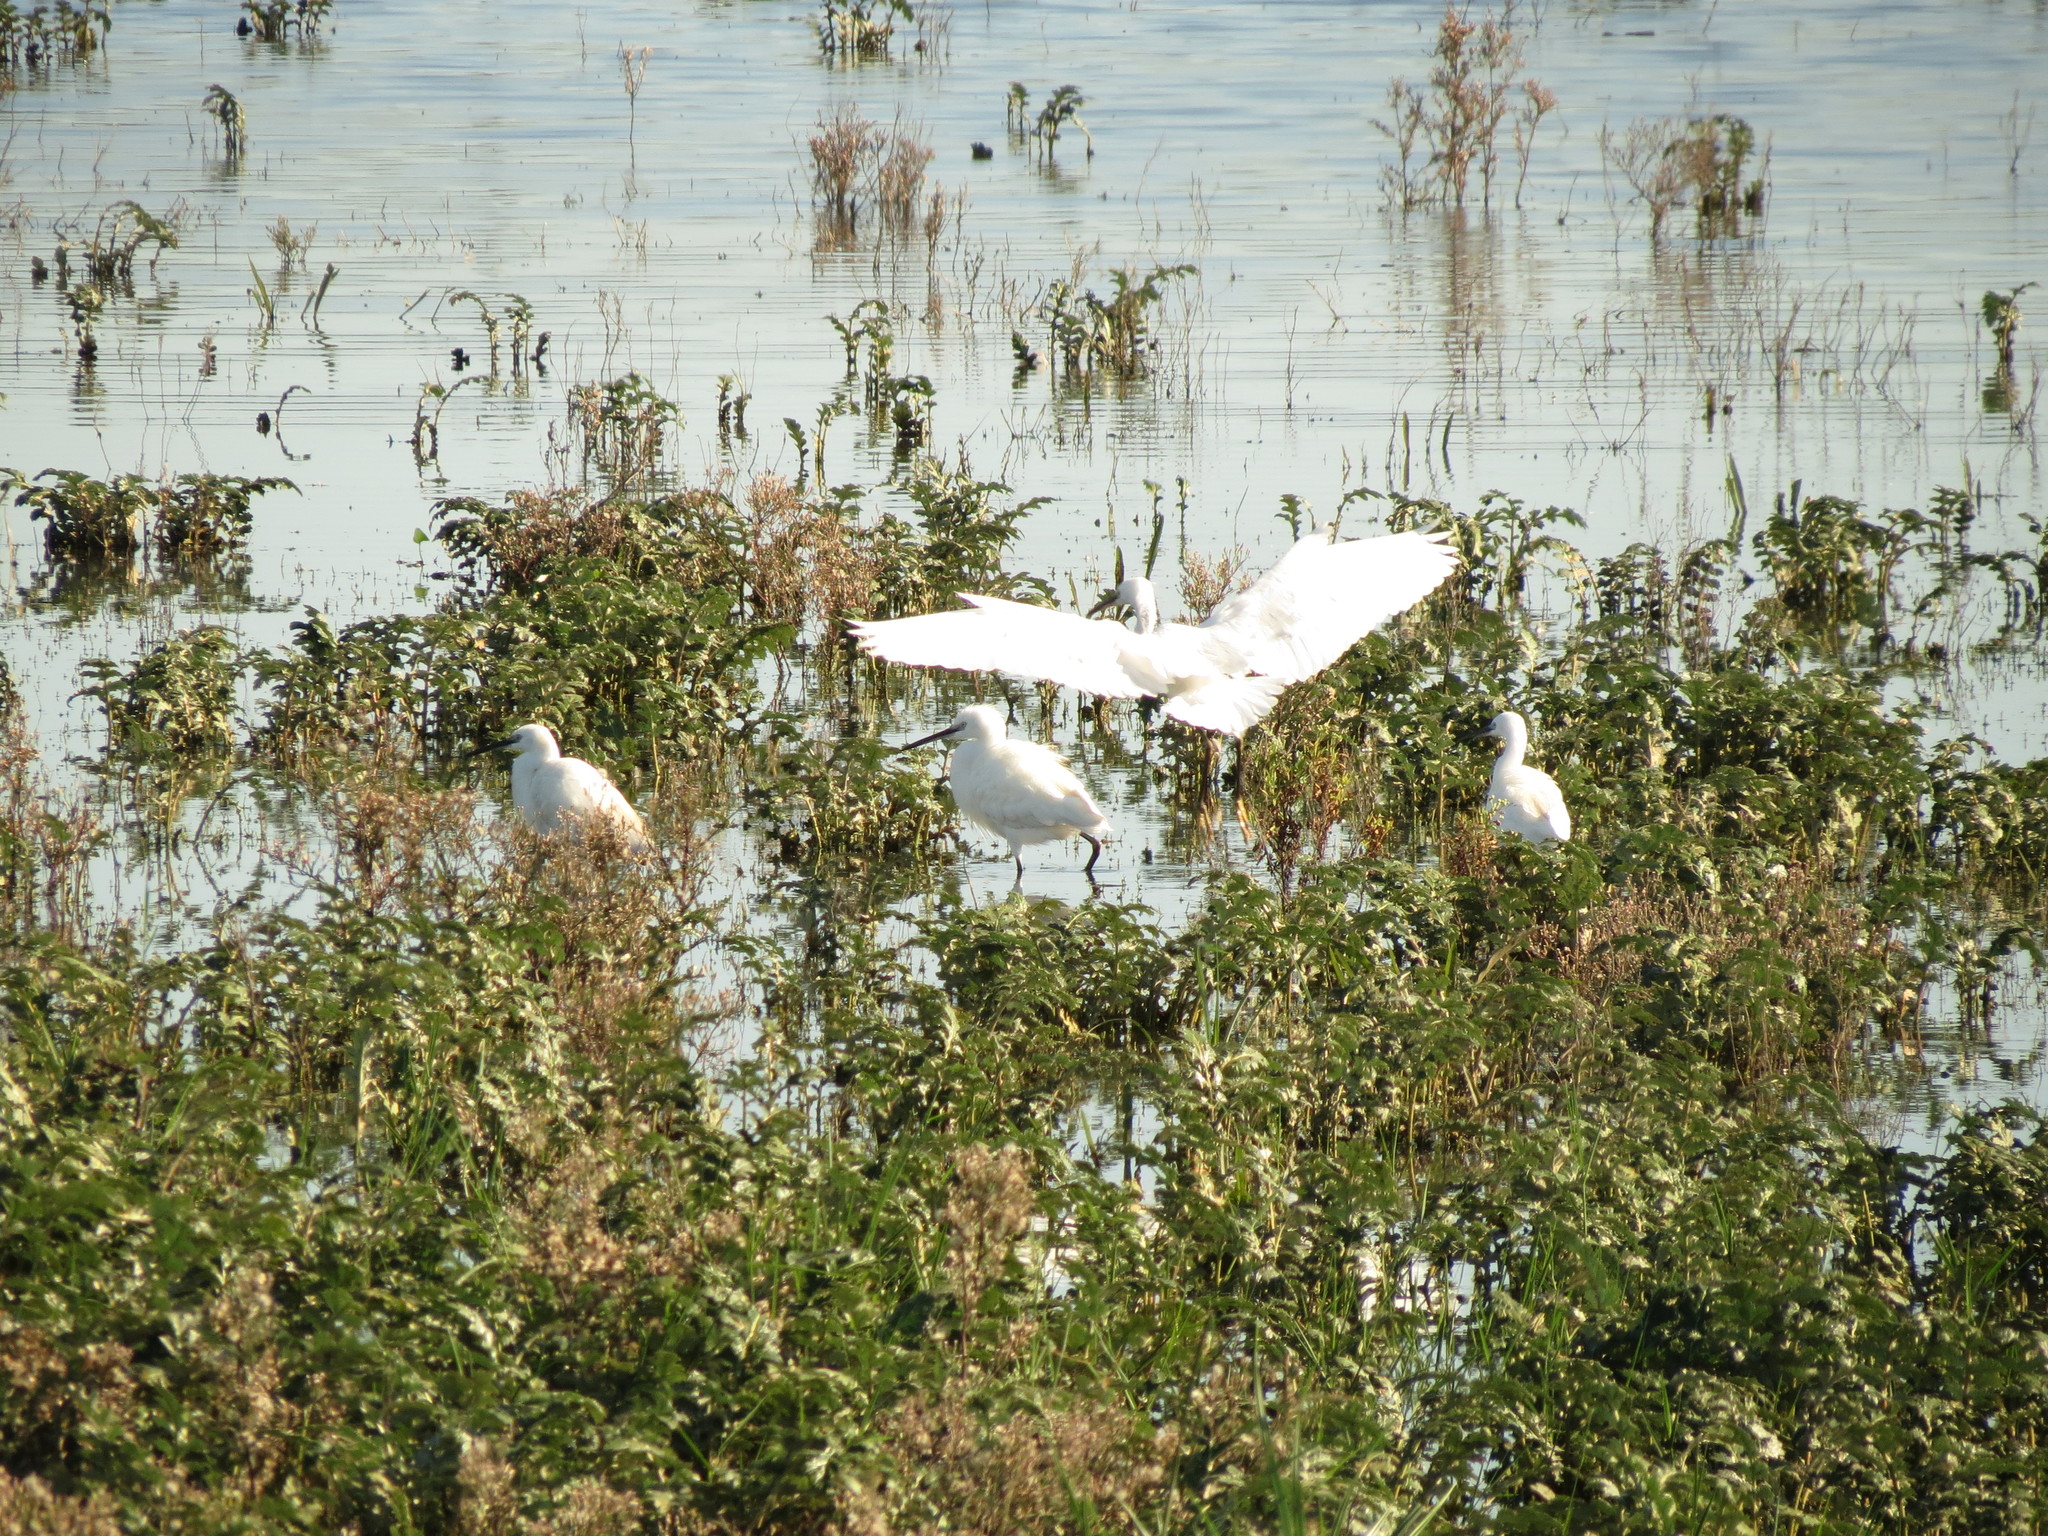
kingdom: Animalia
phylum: Chordata
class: Aves
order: Pelecaniformes
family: Ardeidae
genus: Egretta
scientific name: Egretta garzetta
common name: Little egret
